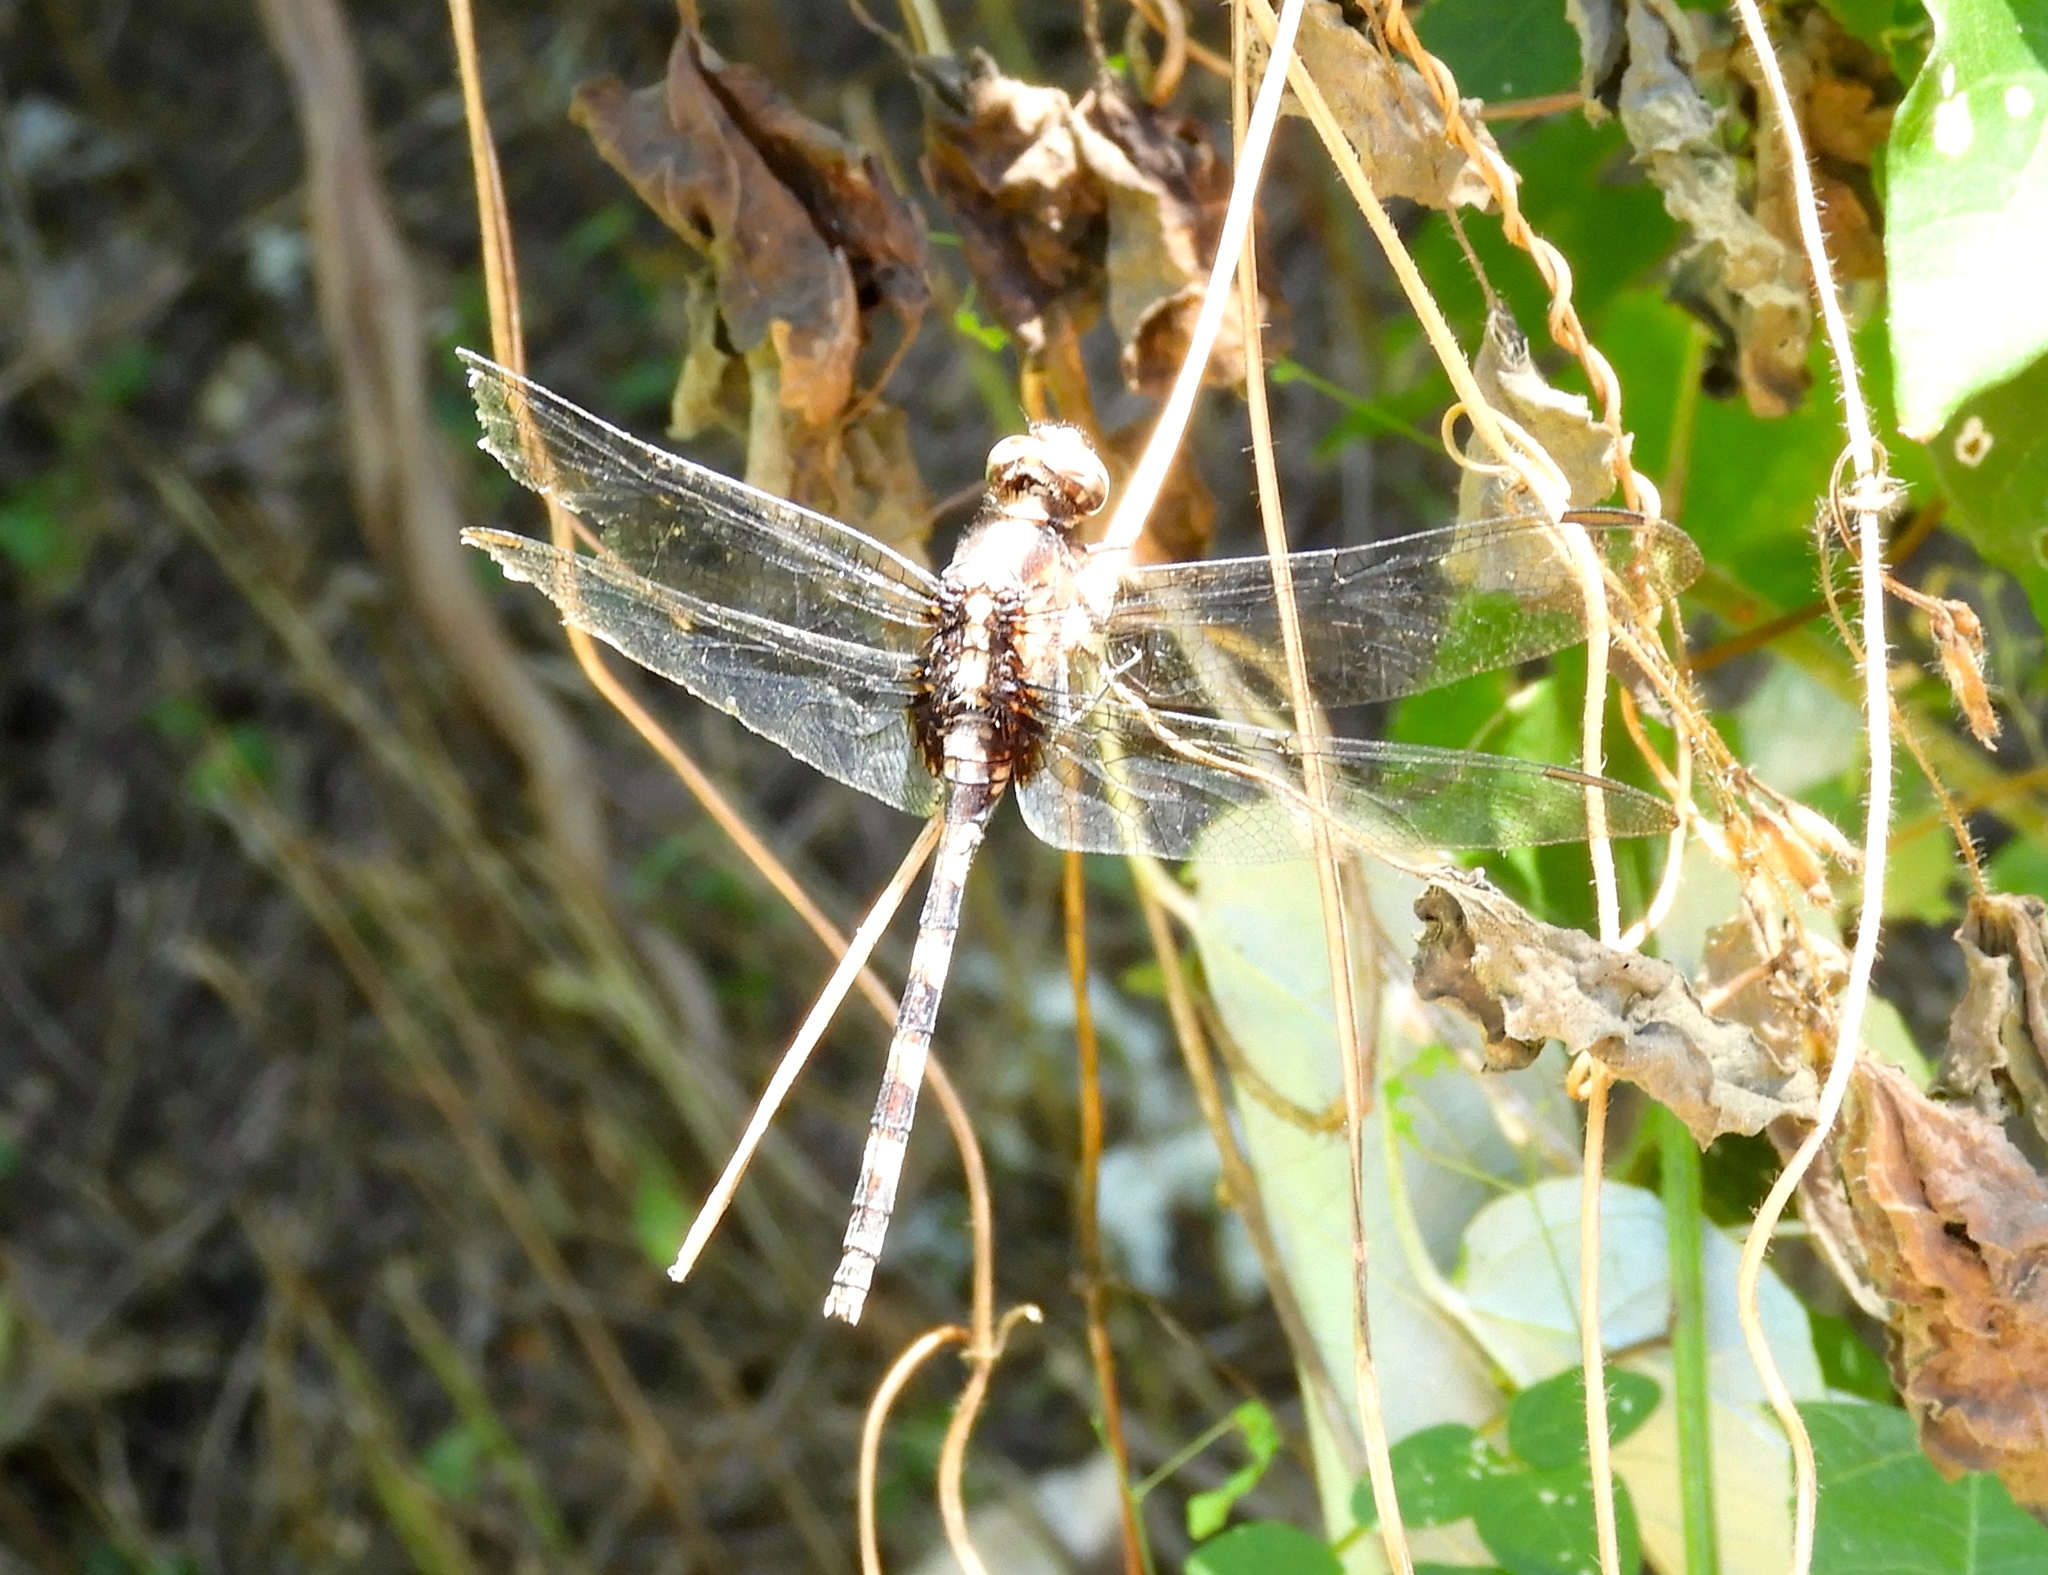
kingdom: Animalia
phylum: Arthropoda
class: Insecta
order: Odonata
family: Libellulidae
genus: Erythemis
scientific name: Erythemis plebeja
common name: Pin-tailed pondhawk
